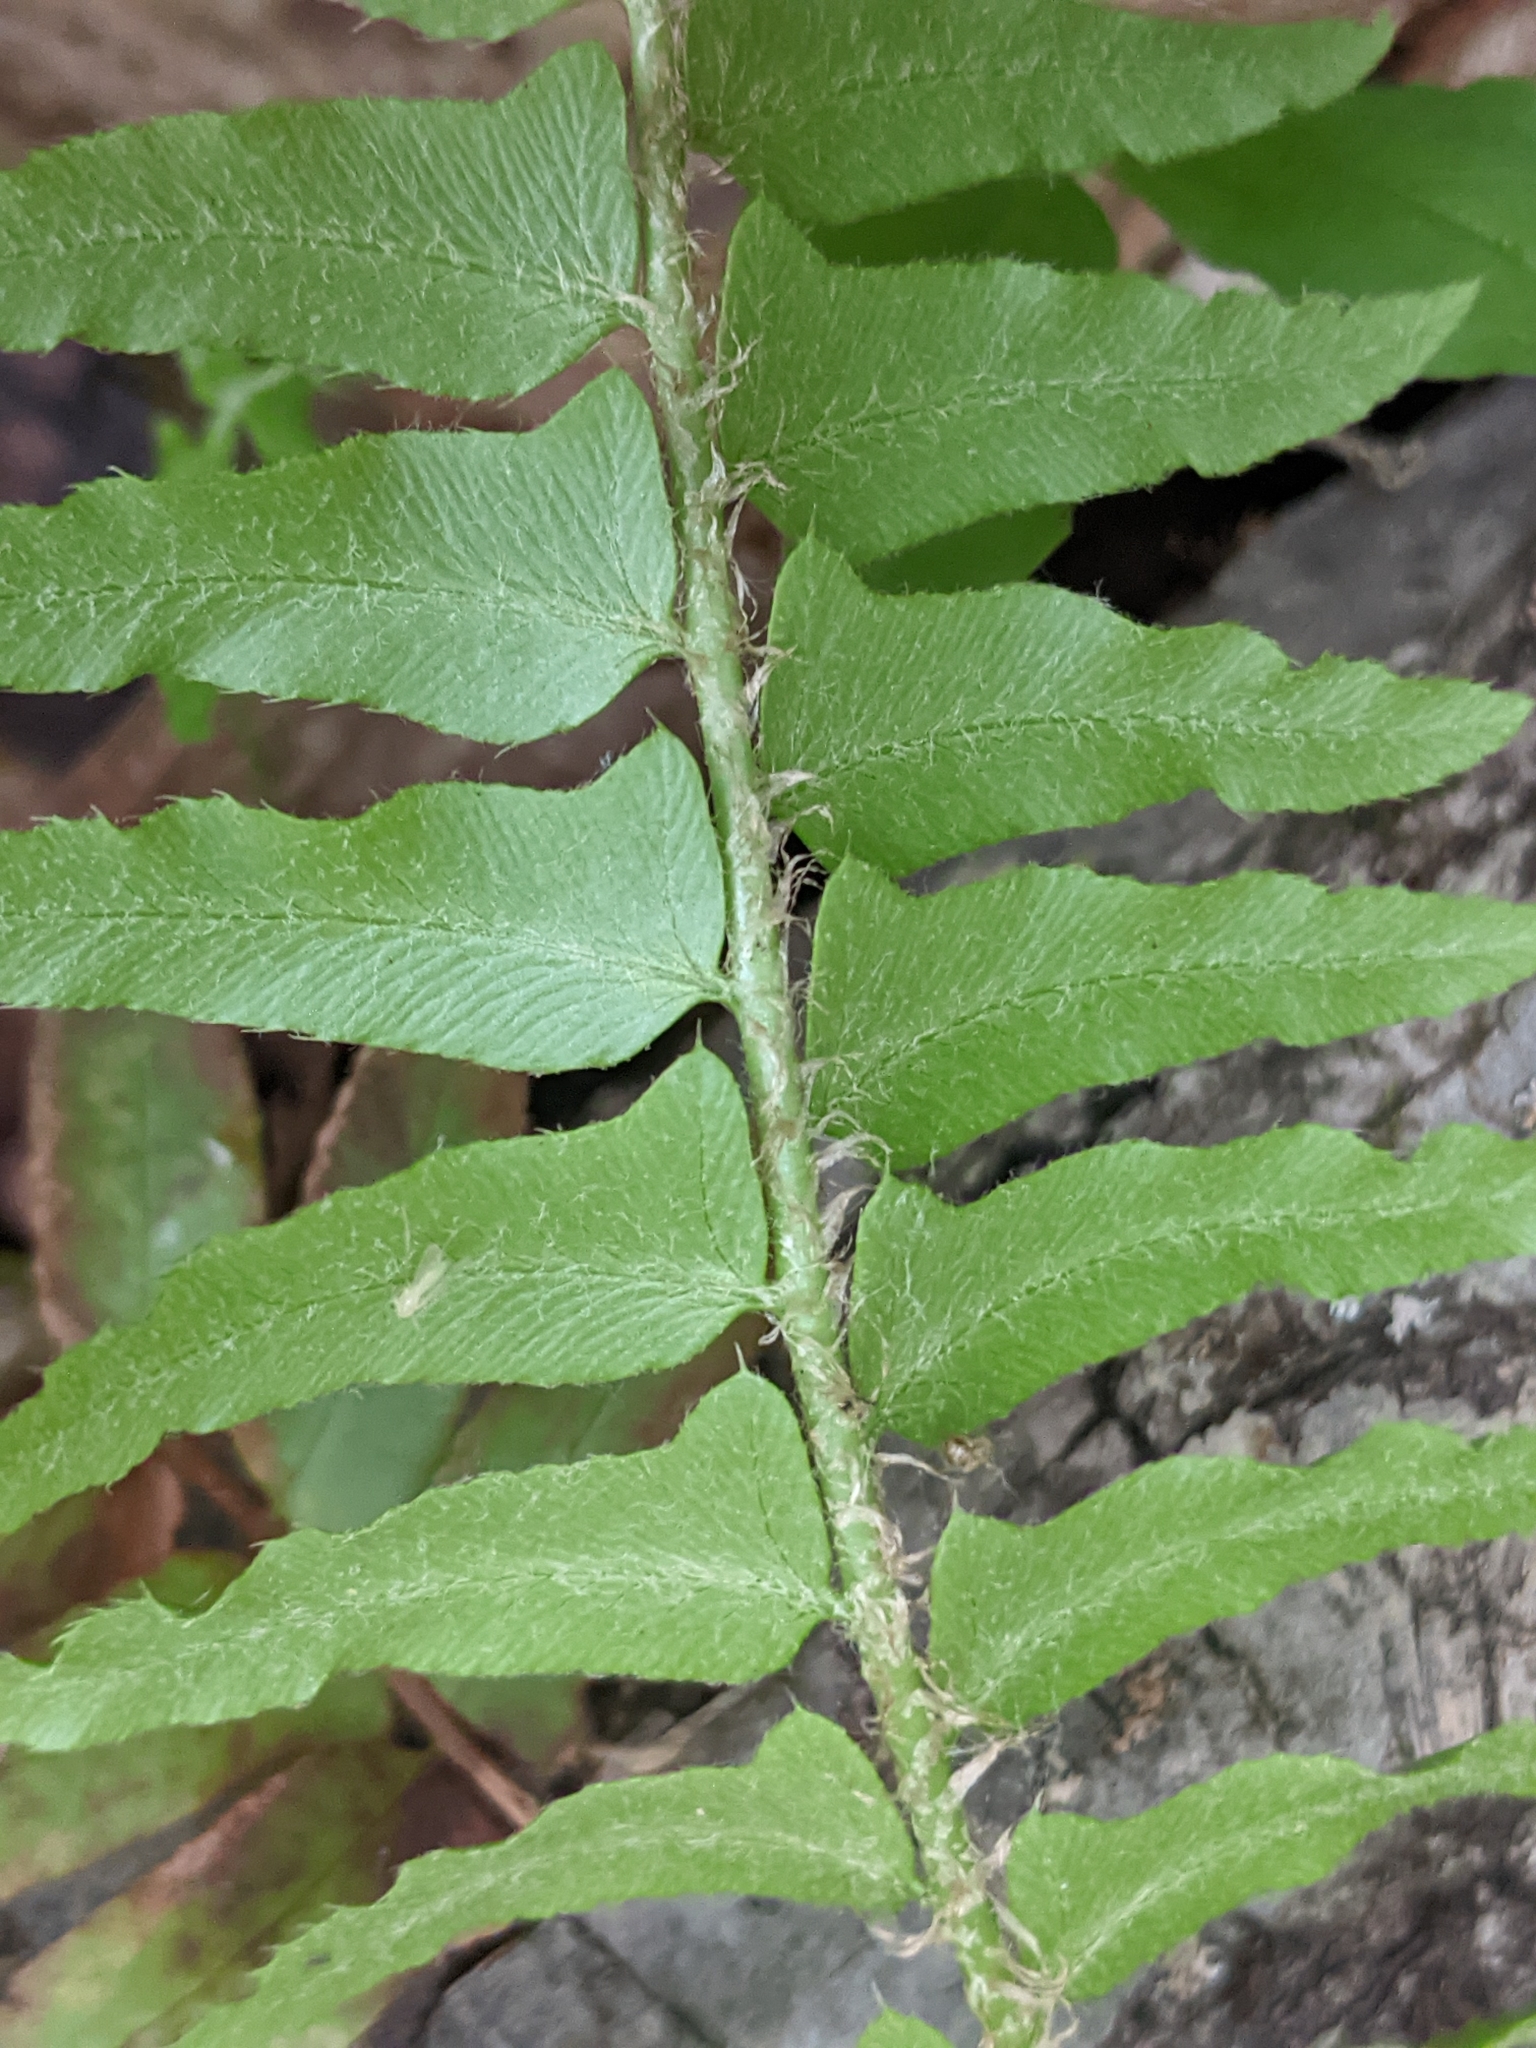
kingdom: Plantae
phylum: Tracheophyta
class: Polypodiopsida
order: Polypodiales
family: Dryopteridaceae
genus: Polystichum
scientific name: Polystichum acrostichoides
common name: Christmas fern
